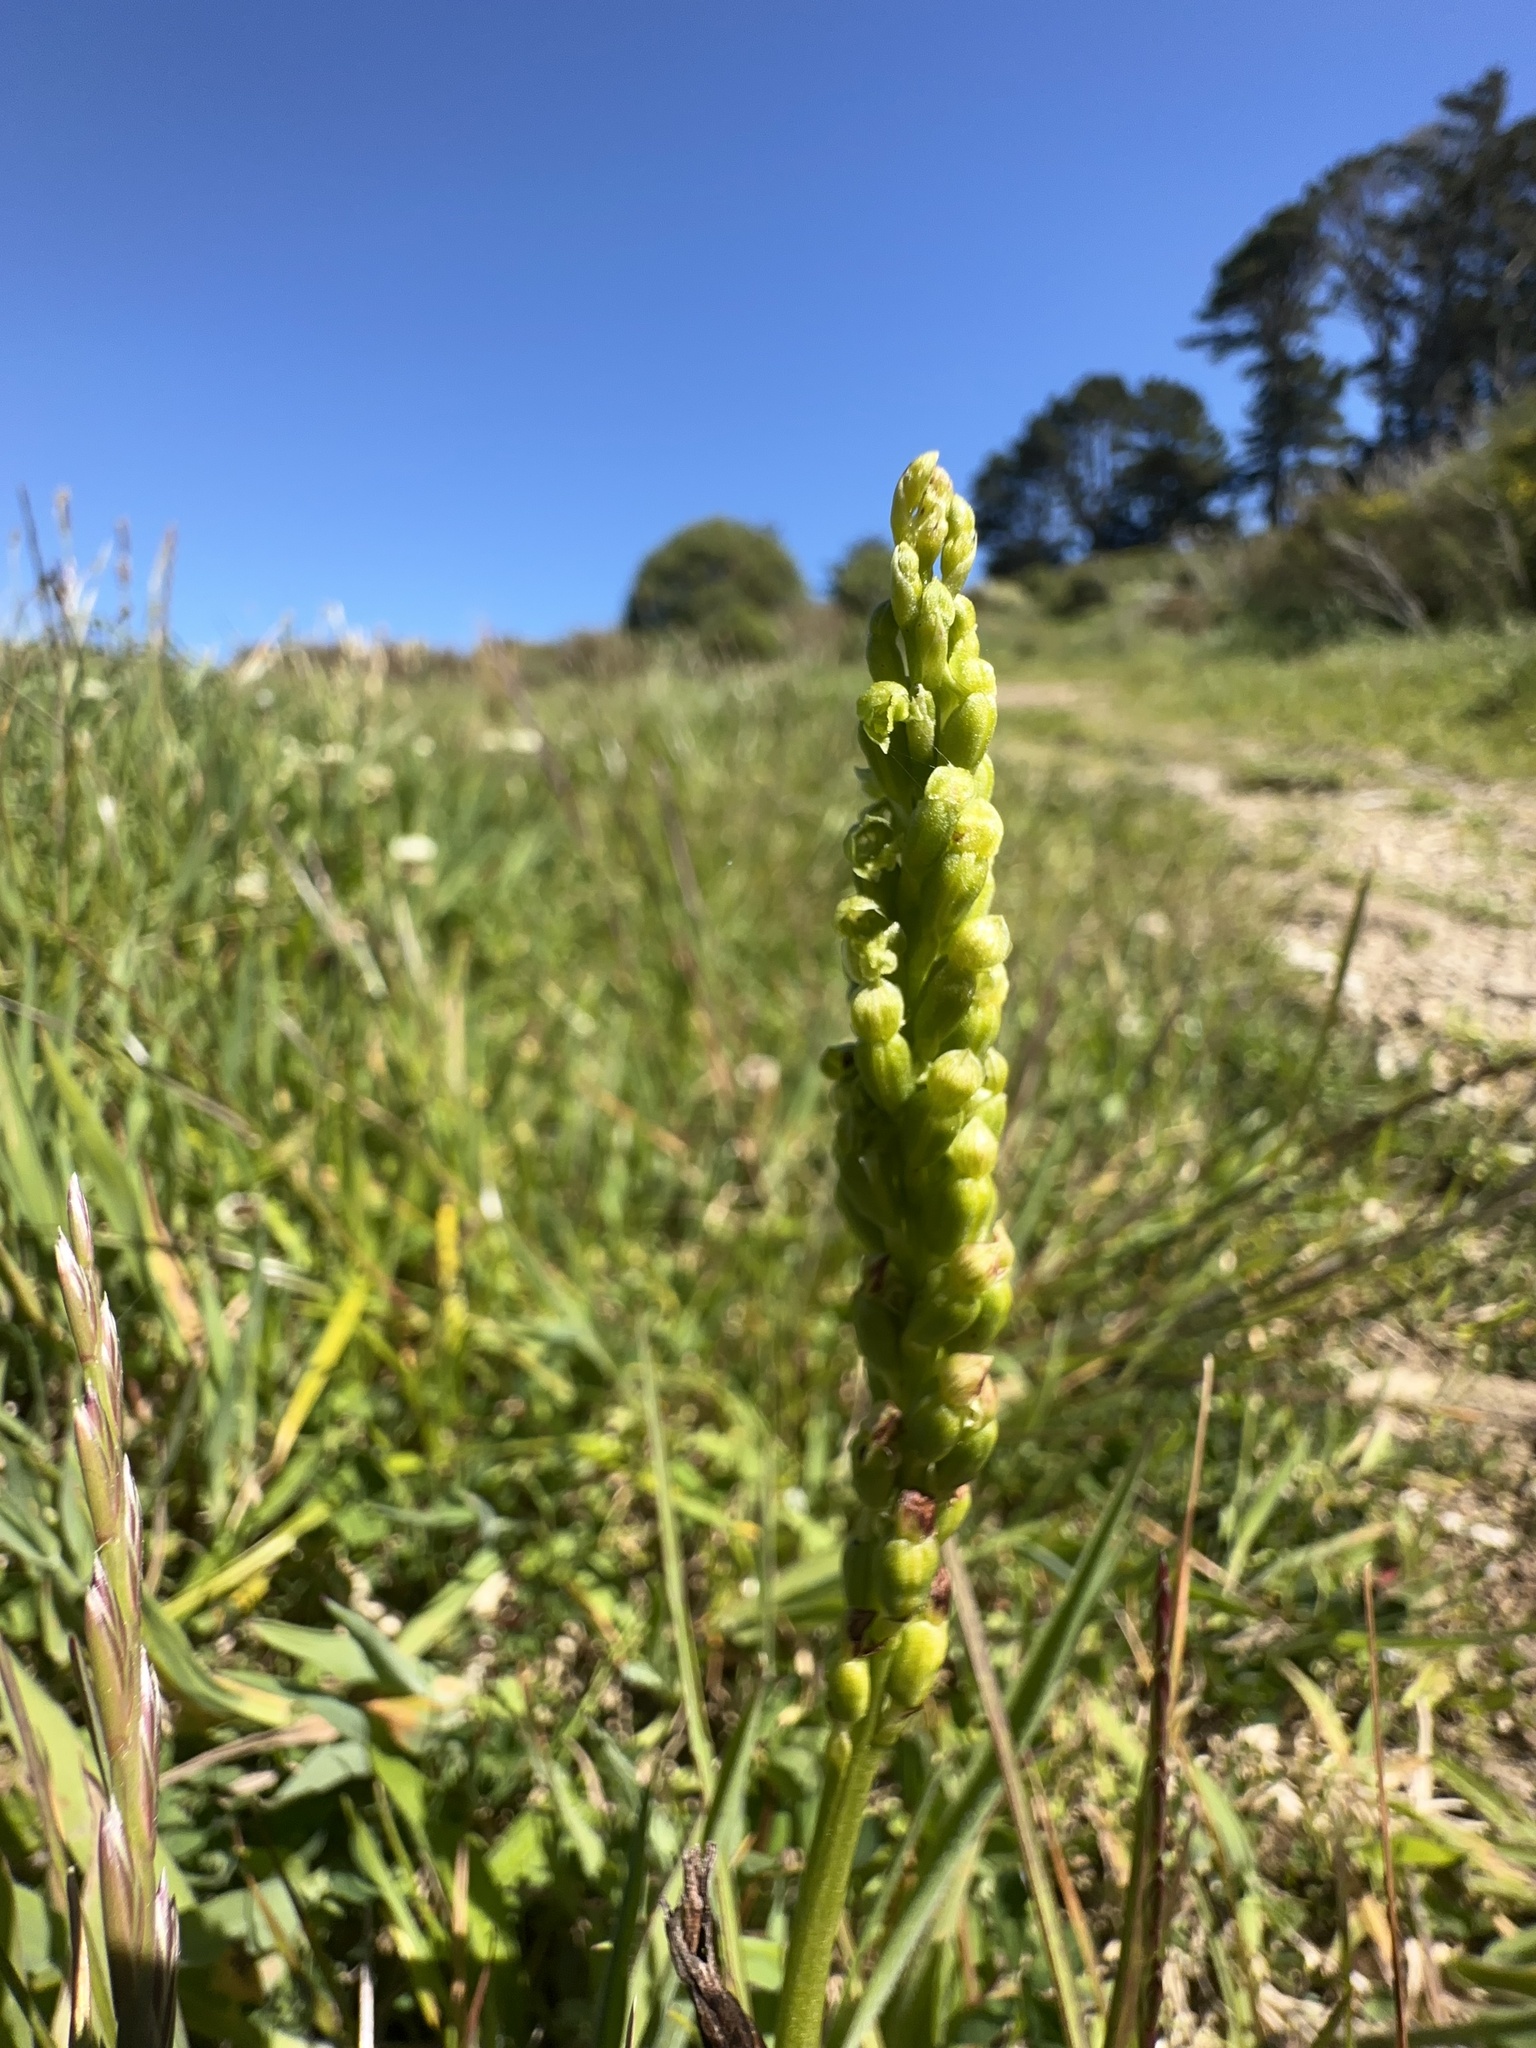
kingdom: Plantae
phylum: Tracheophyta
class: Liliopsida
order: Asparagales
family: Orchidaceae
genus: Microtis
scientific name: Microtis unifolia
